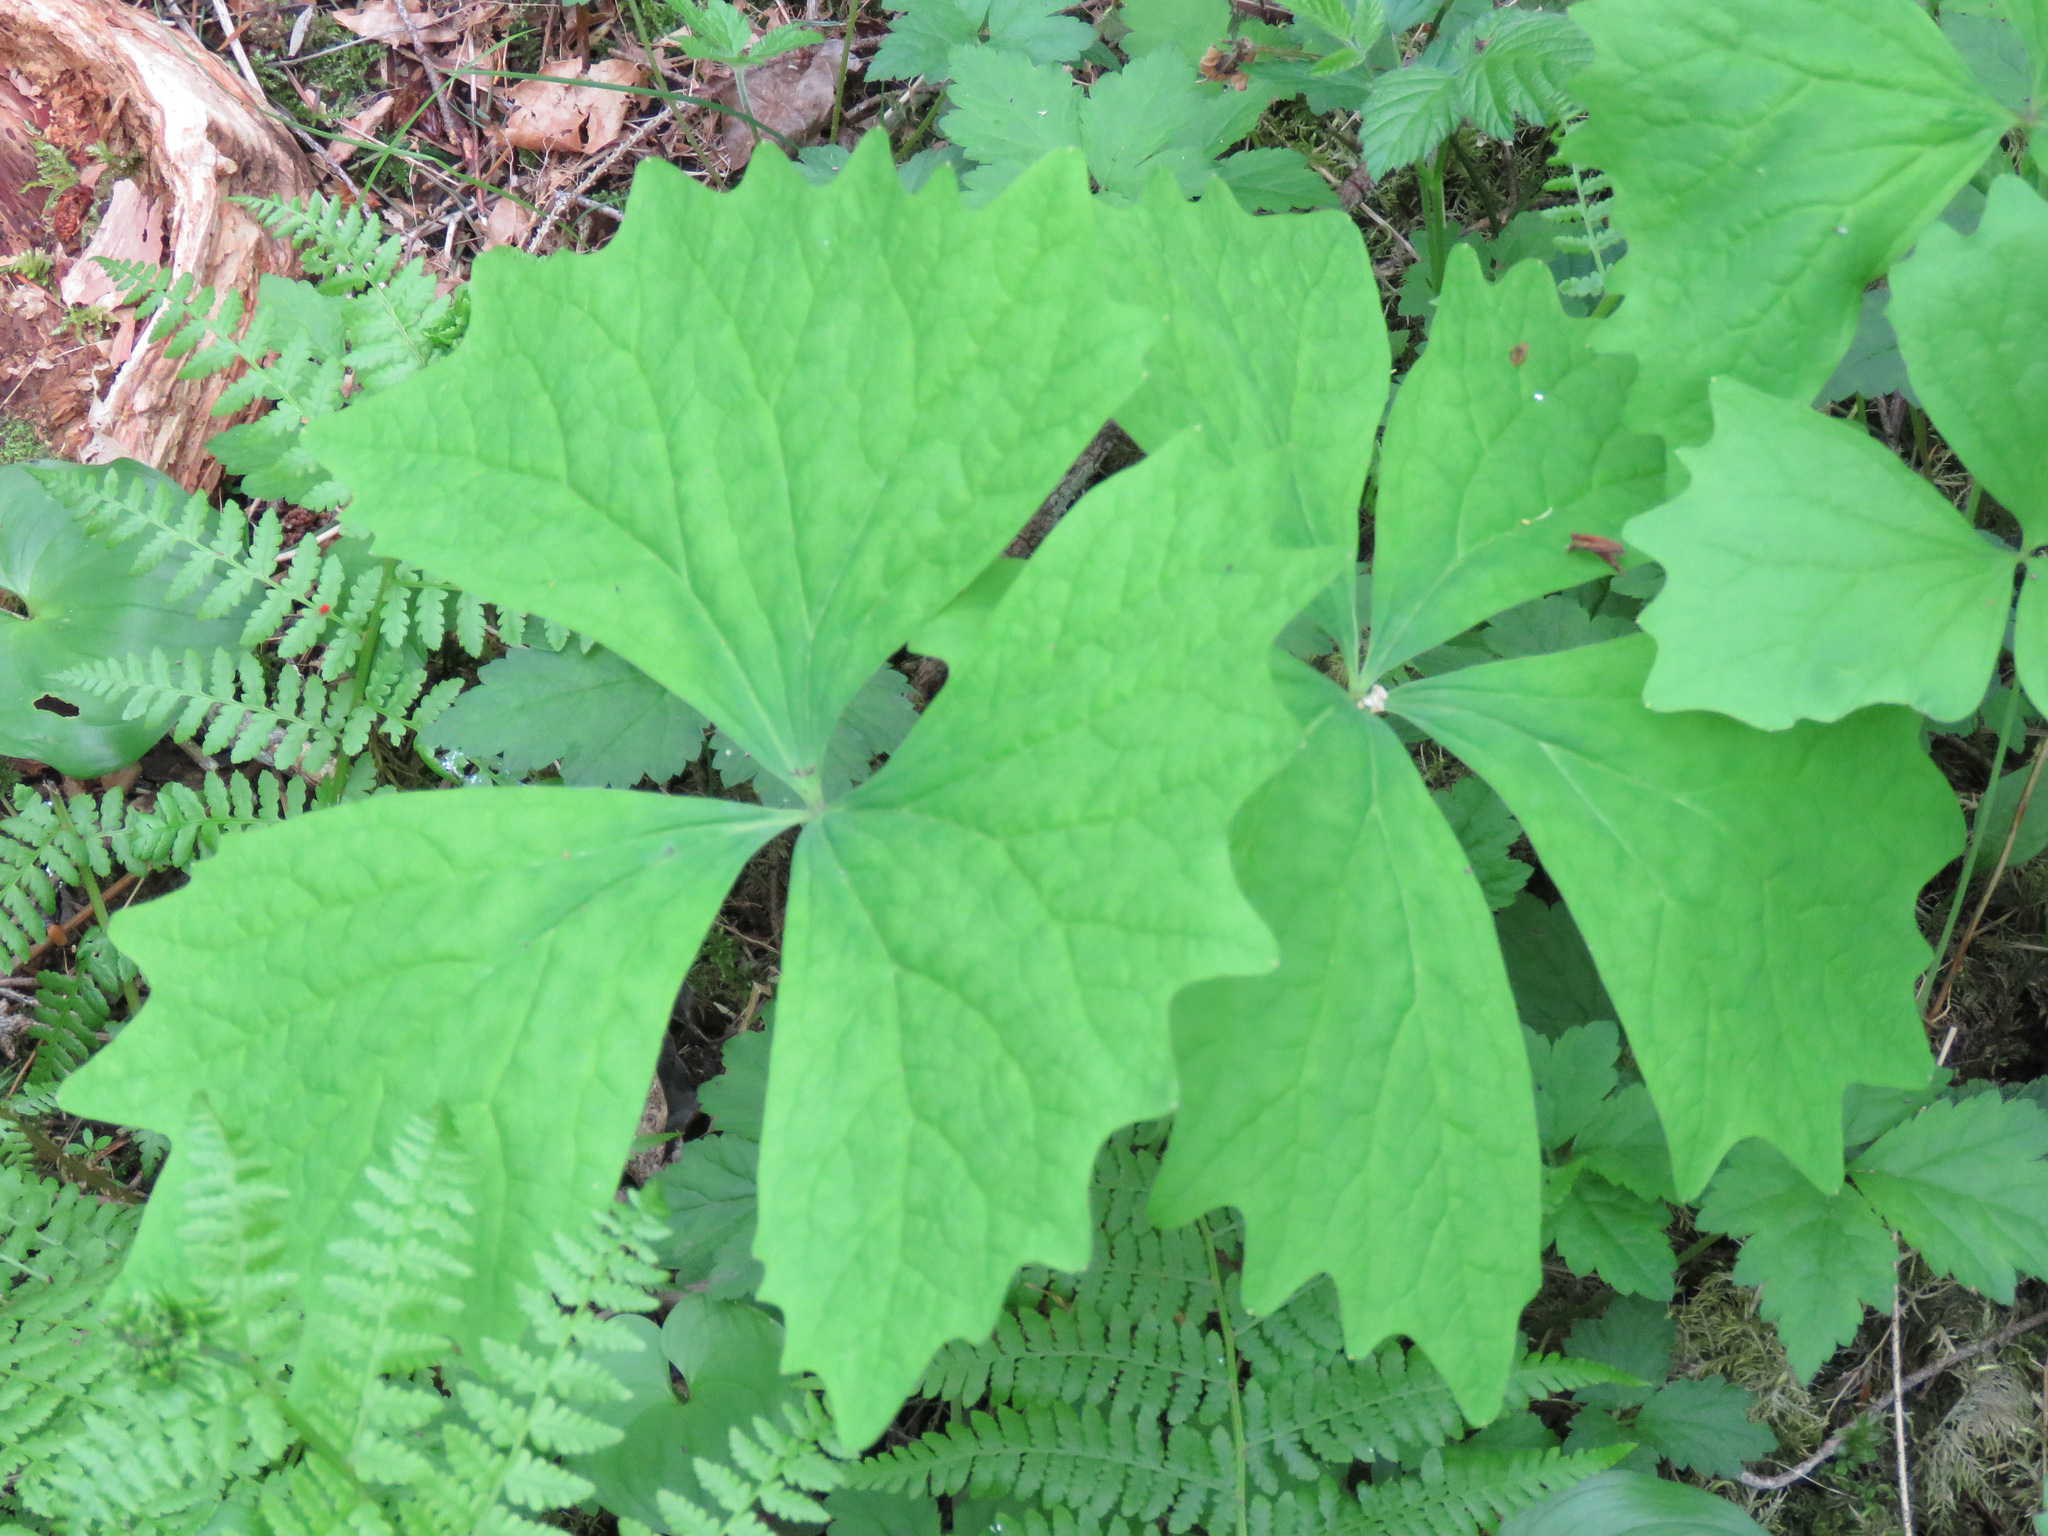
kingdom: Plantae
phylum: Tracheophyta
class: Magnoliopsida
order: Ranunculales
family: Berberidaceae
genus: Achlys
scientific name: Achlys triphylla
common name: Vanilla-leaf
